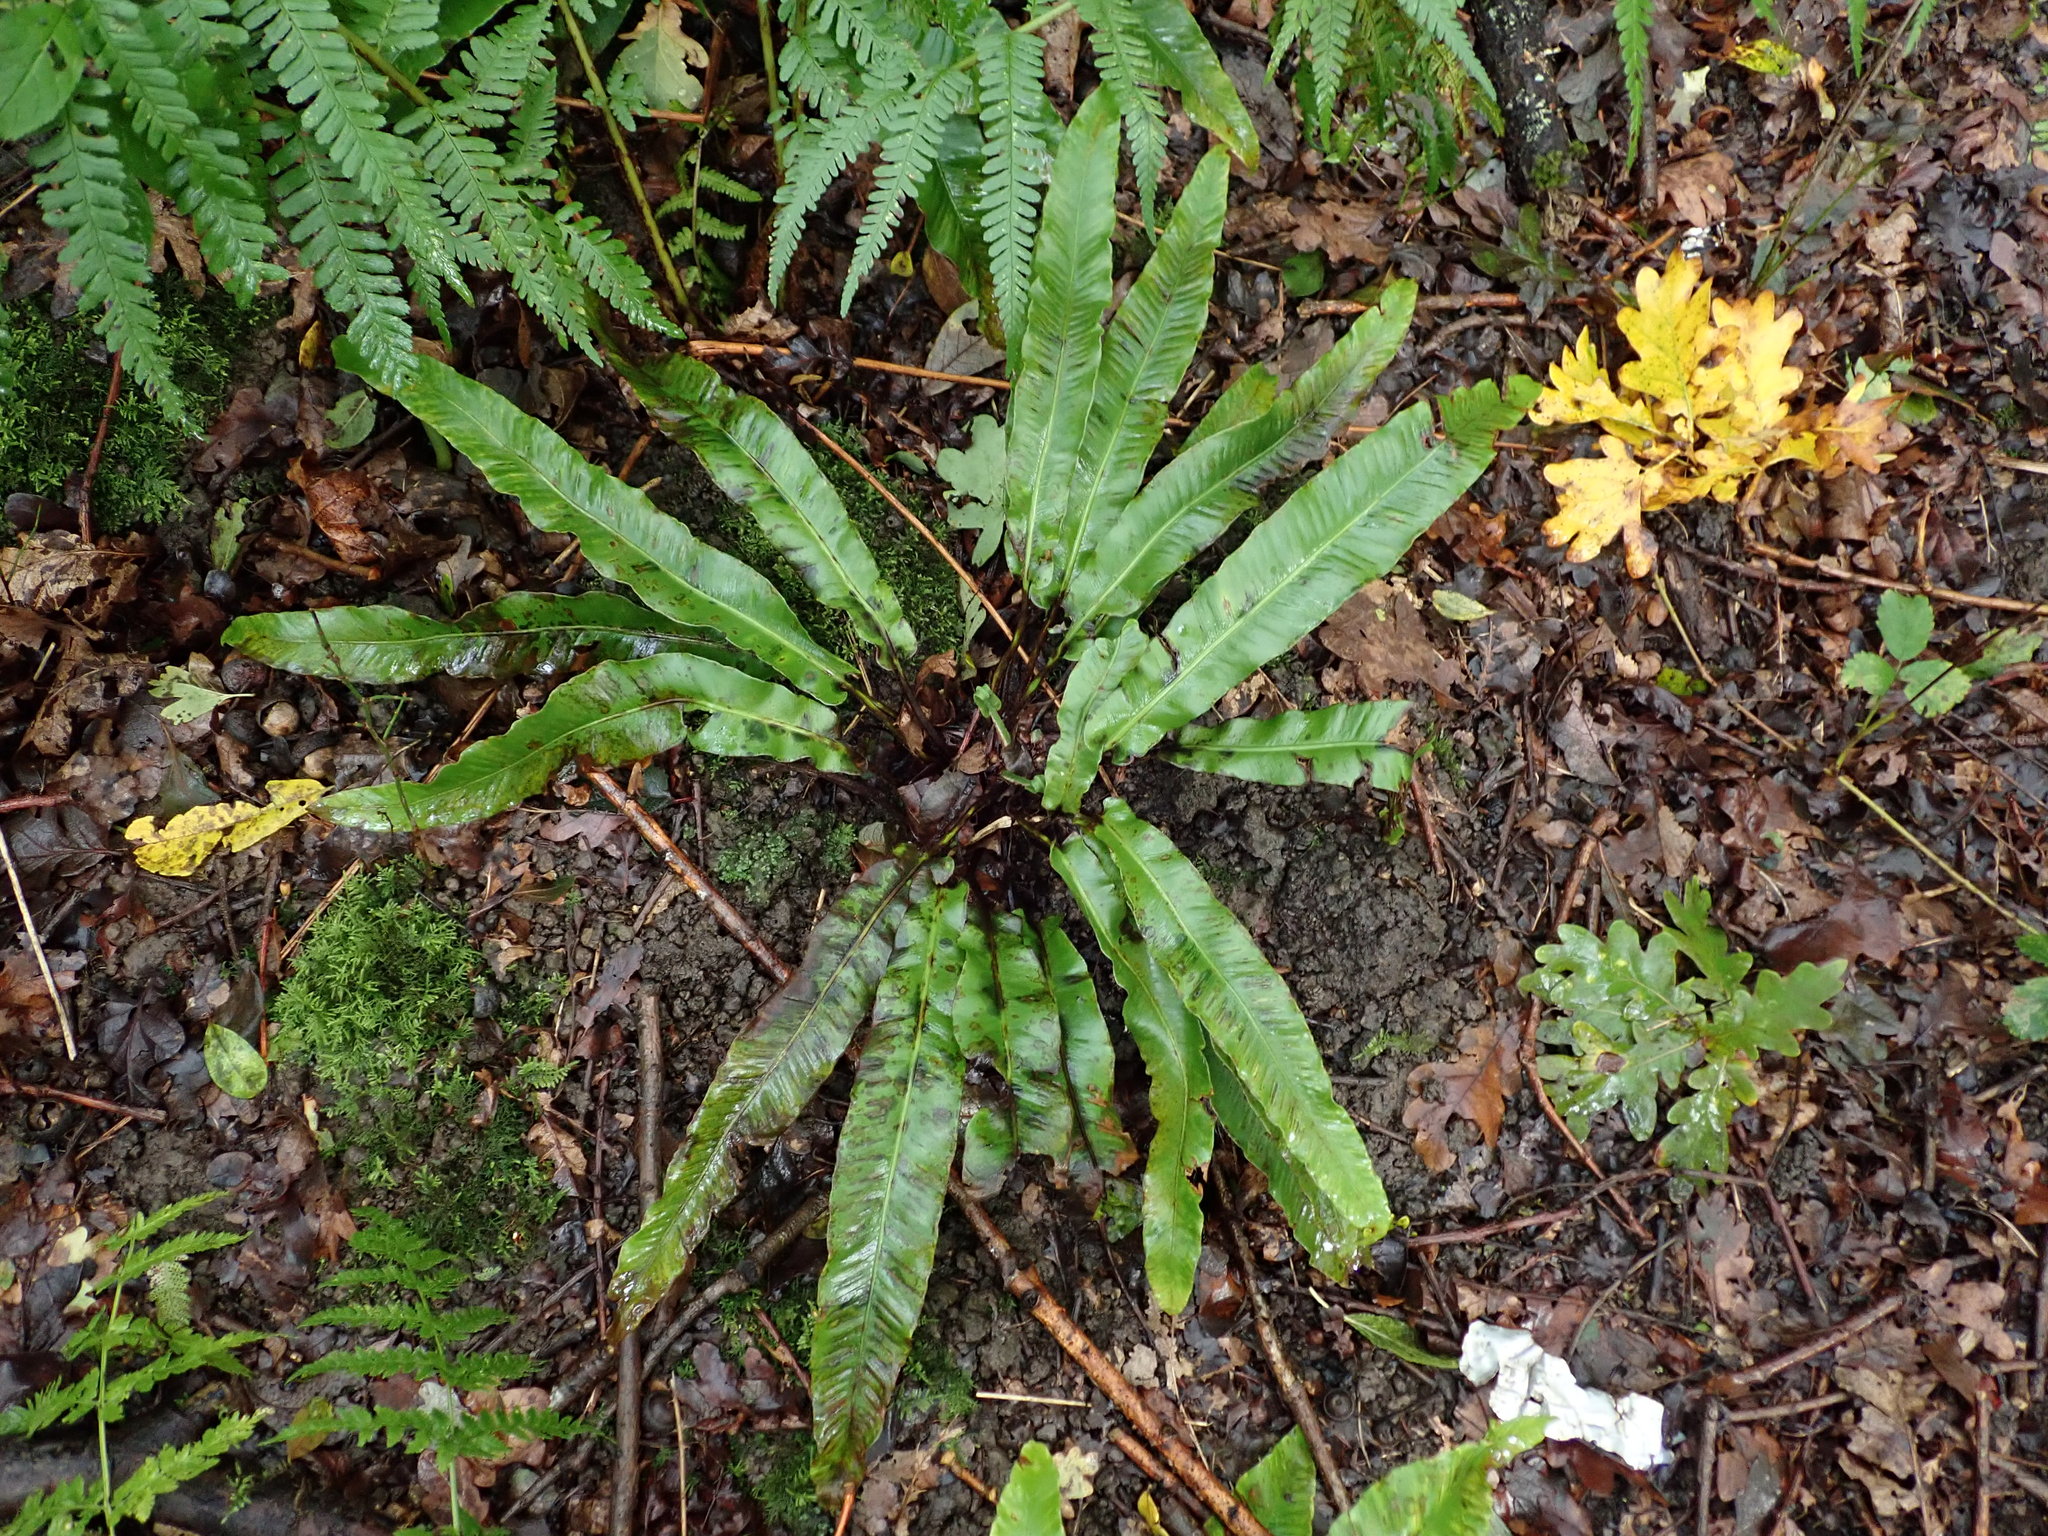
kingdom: Plantae
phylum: Tracheophyta
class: Polypodiopsida
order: Polypodiales
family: Aspleniaceae
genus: Asplenium
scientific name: Asplenium scolopendrium
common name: Hart's-tongue fern
